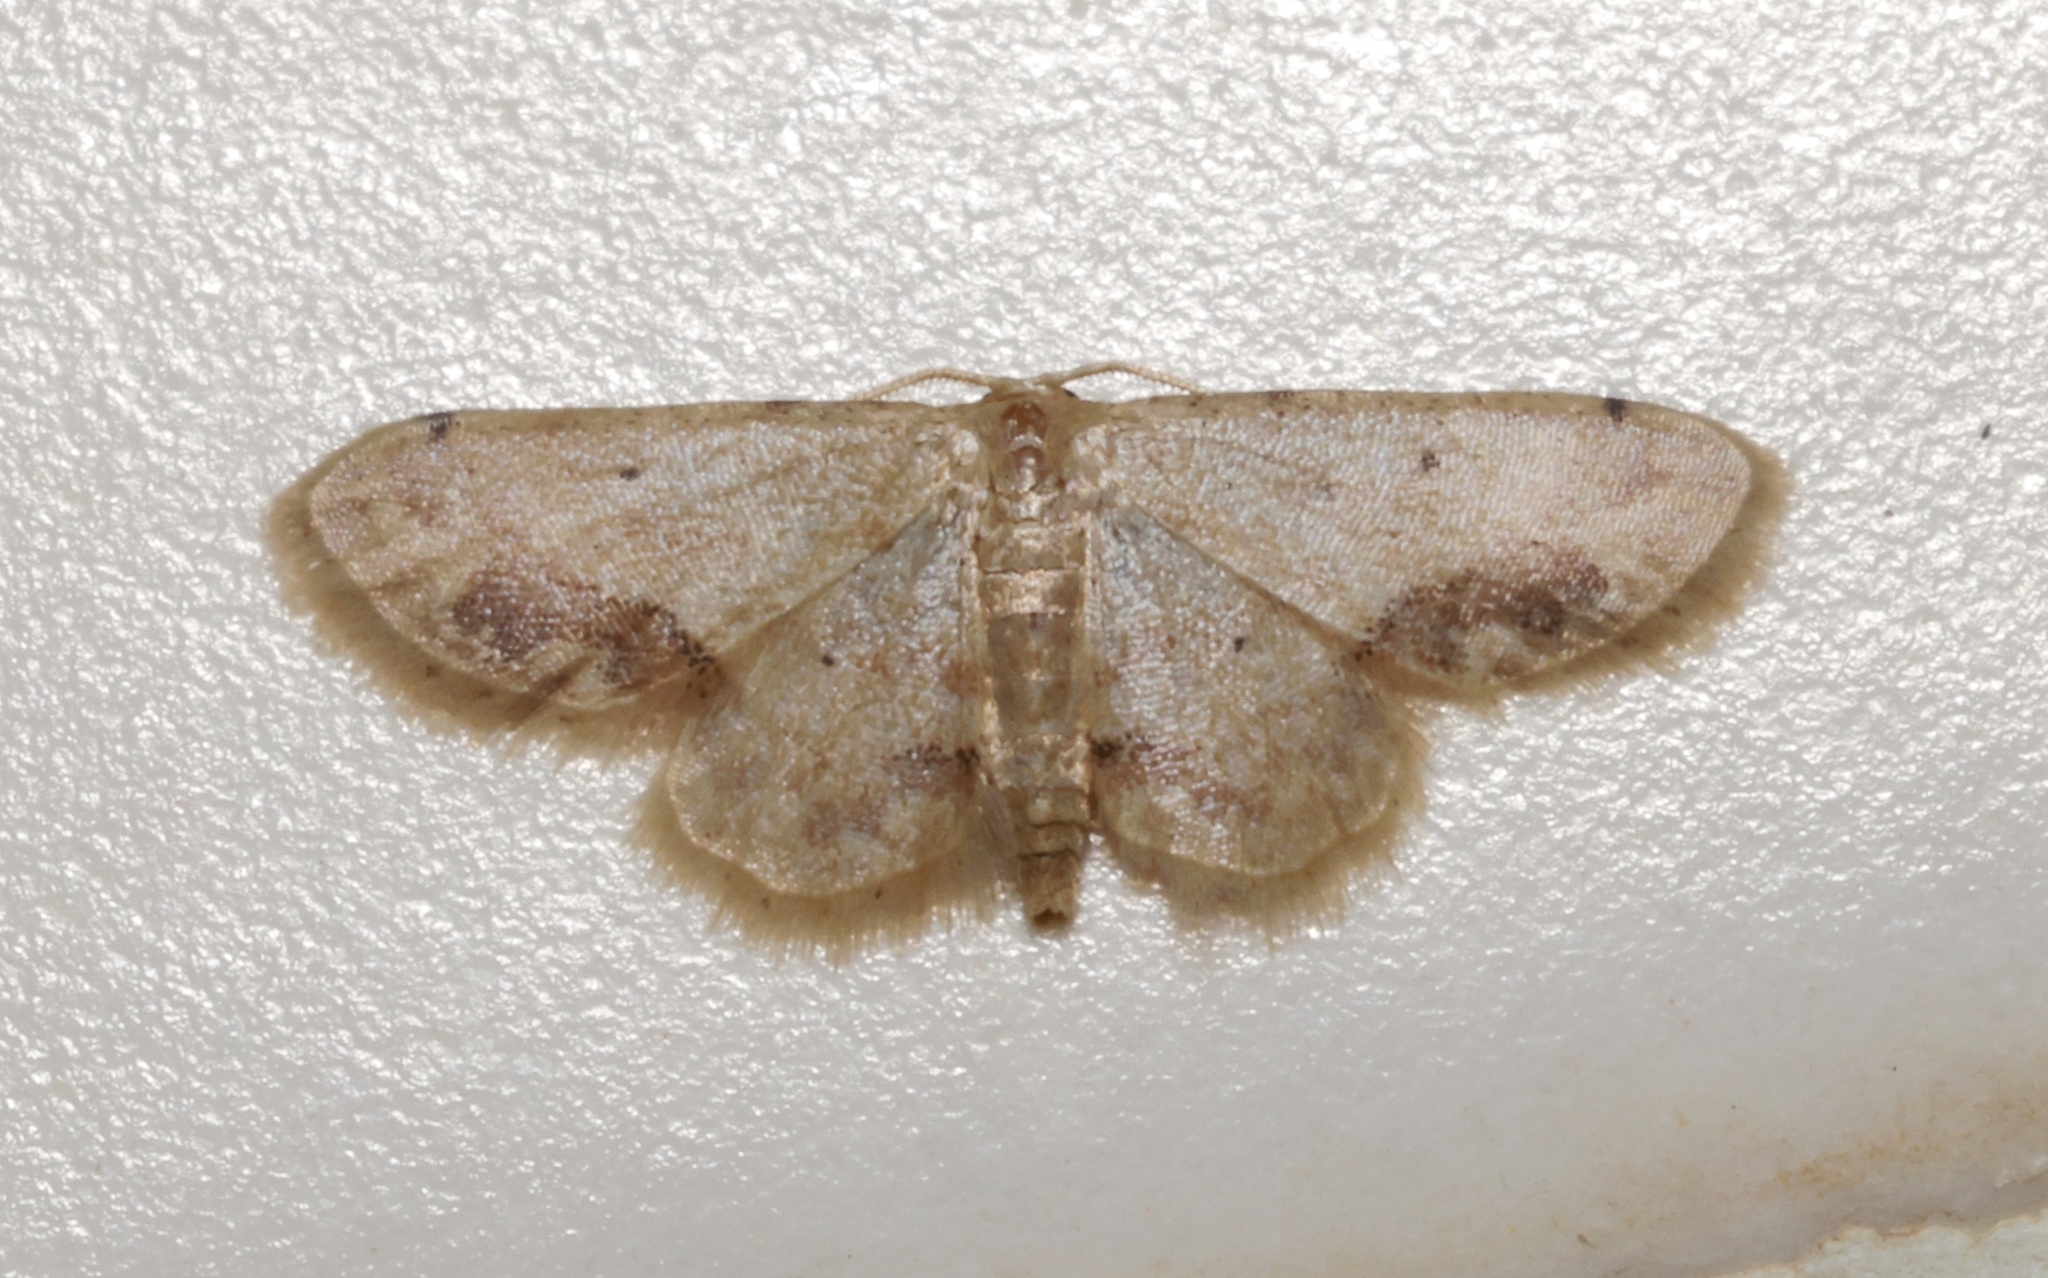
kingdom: Animalia
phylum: Arthropoda
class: Insecta
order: Lepidoptera
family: Geometridae
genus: Idaea
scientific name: Idaea chotaria
